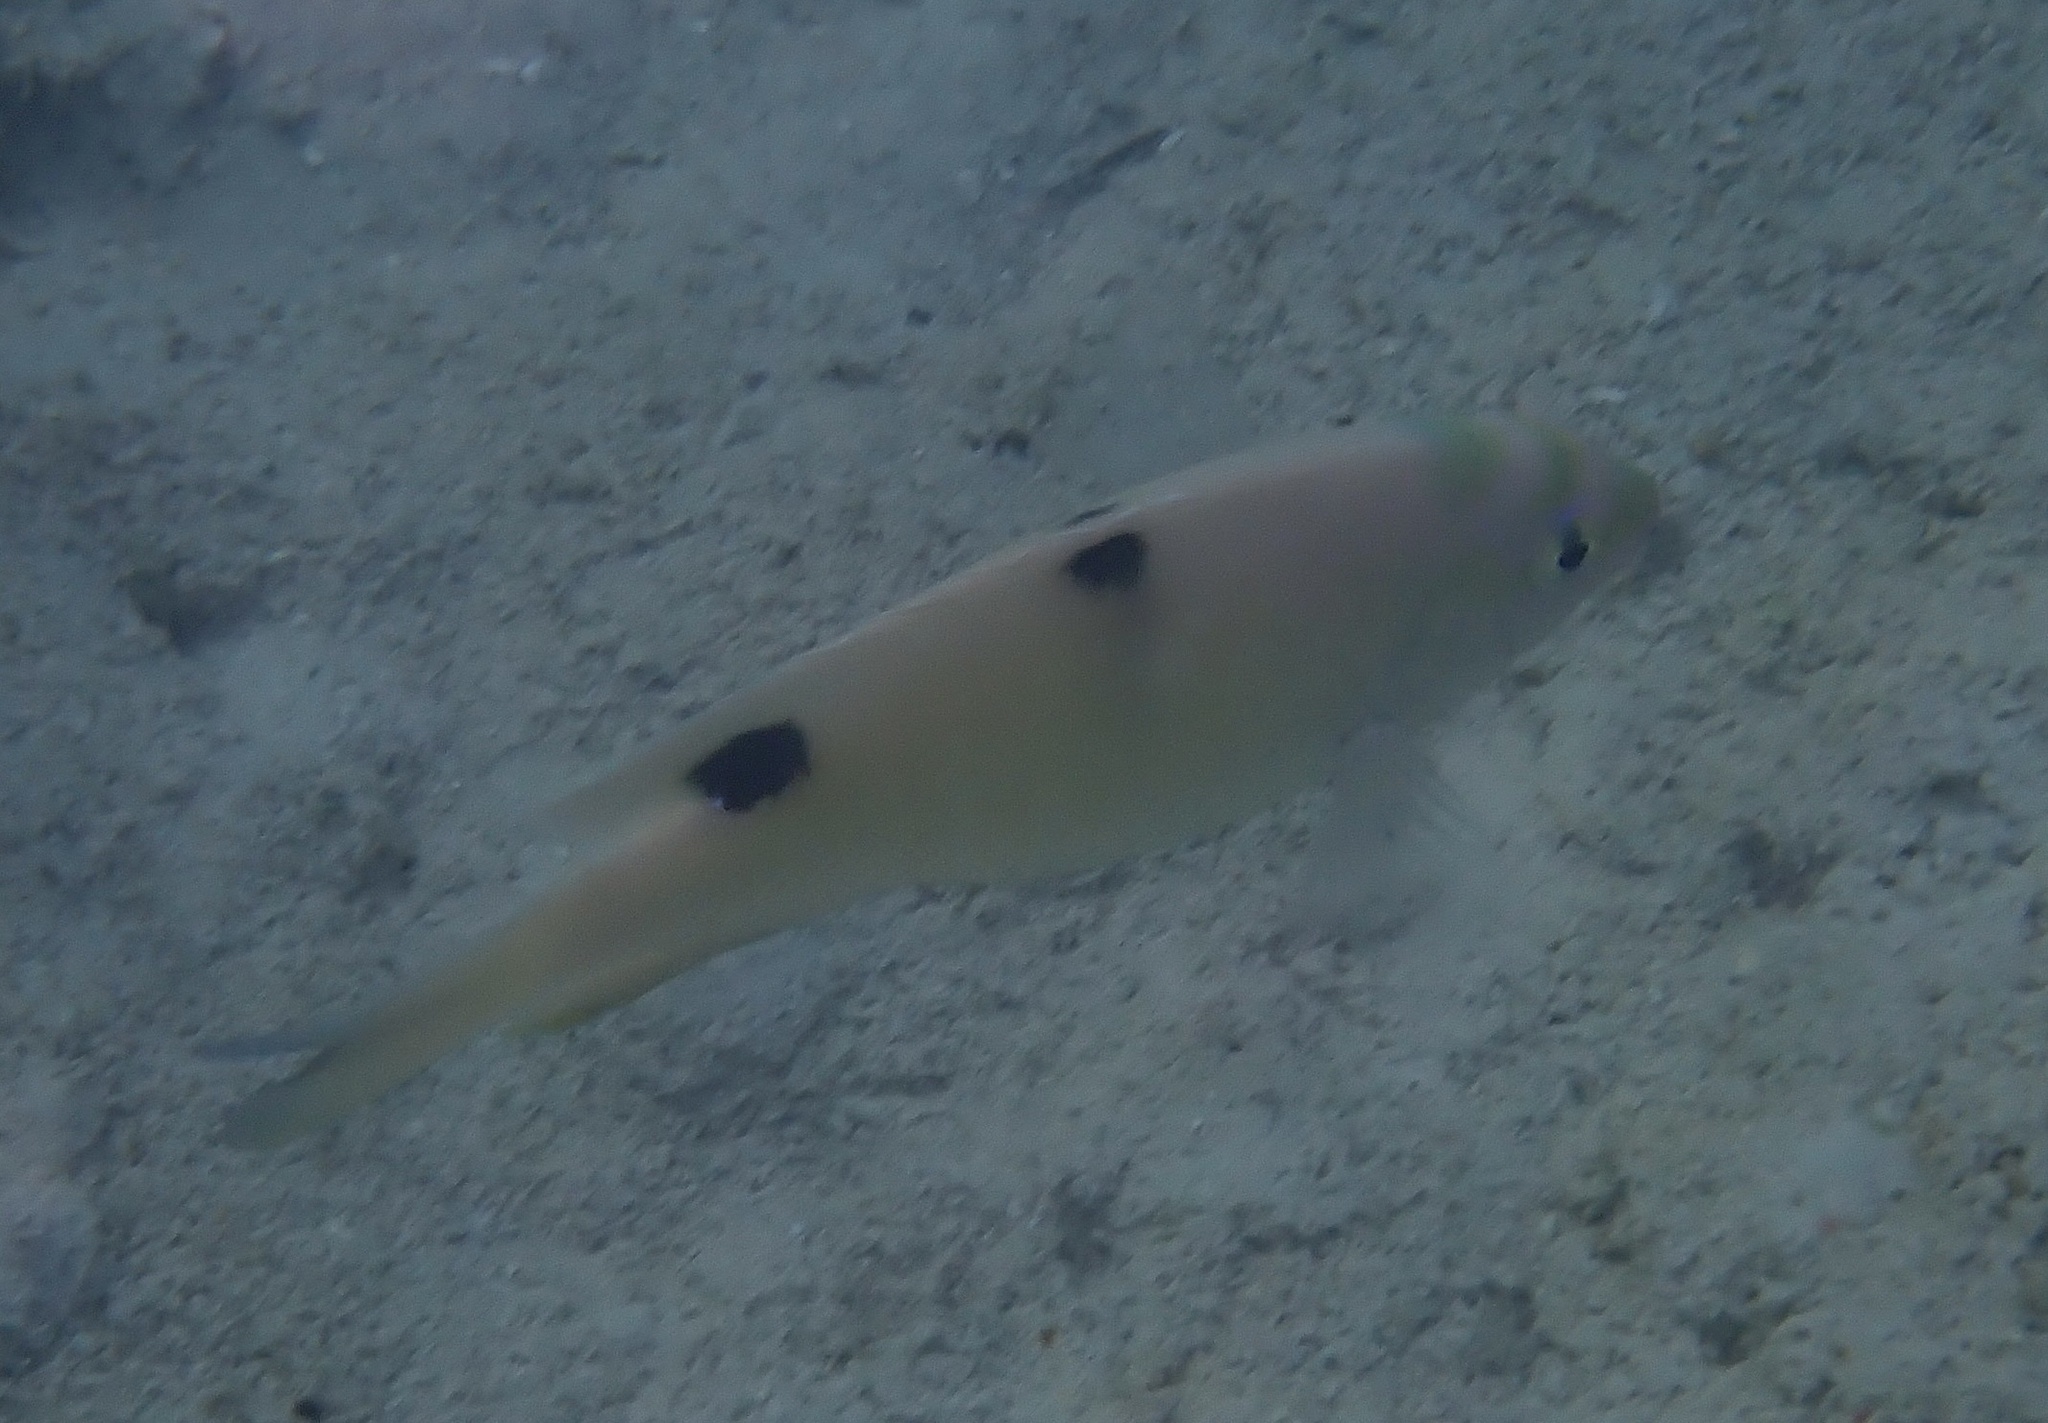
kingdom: Animalia
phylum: Chordata
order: Perciformes
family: Pomacentridae
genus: Dischistodus
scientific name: Dischistodus perspicillatus
